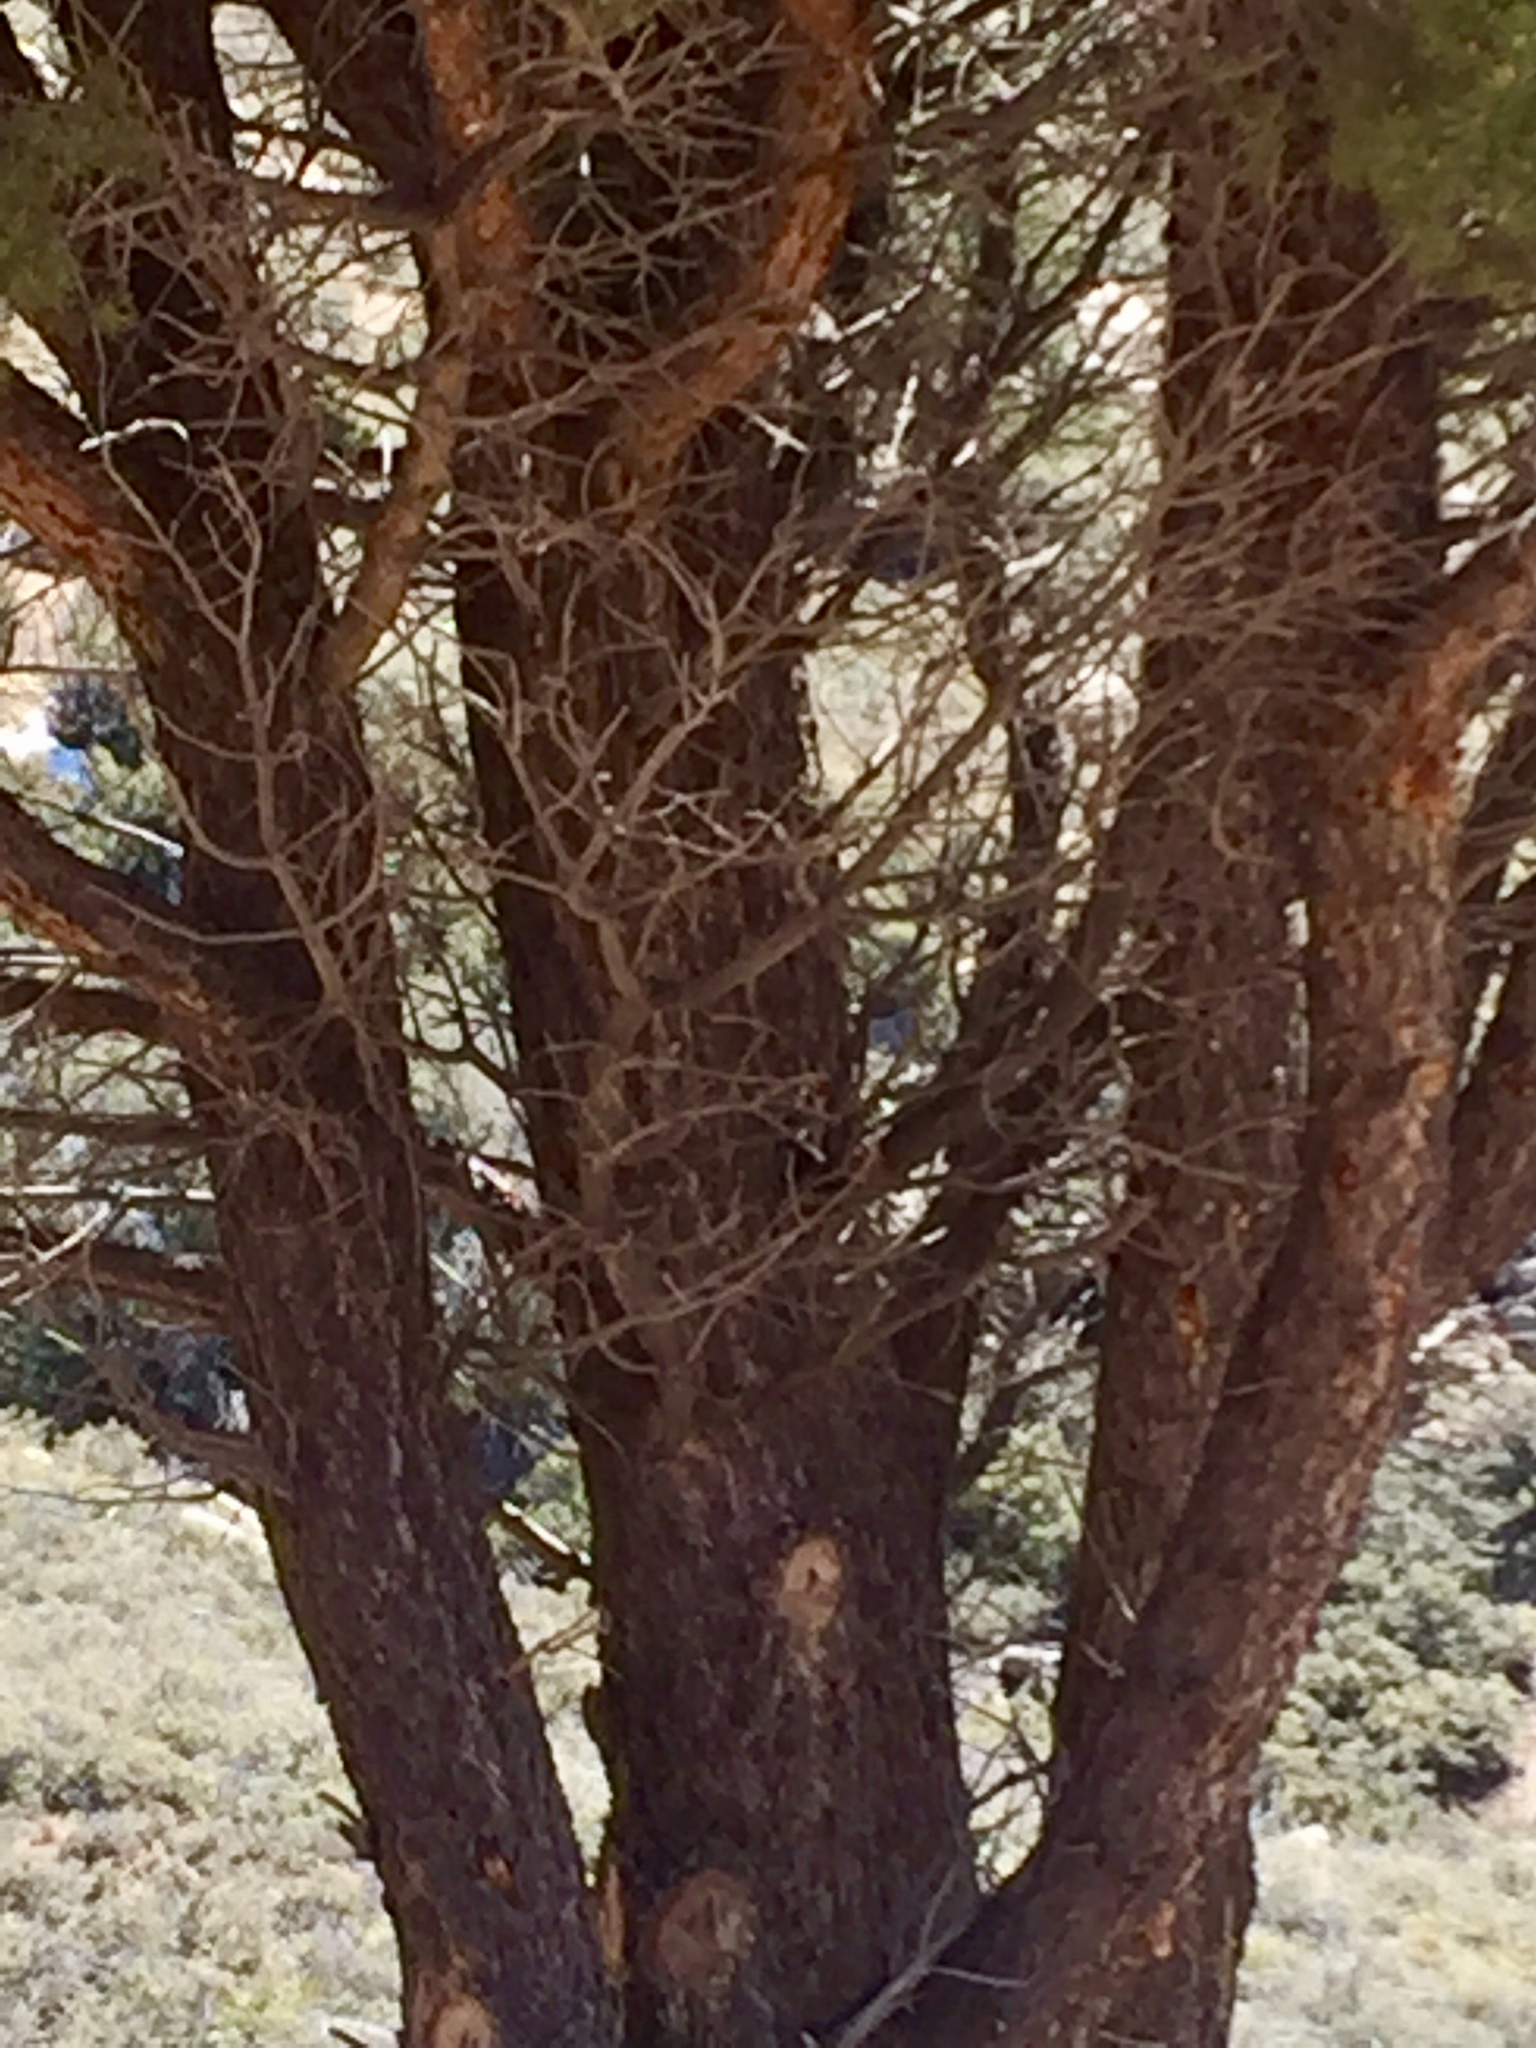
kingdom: Plantae
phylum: Tracheophyta
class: Pinopsida
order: Pinales
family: Pinaceae
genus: Pinus
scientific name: Pinus monophylla
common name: One-leaved nut pine
